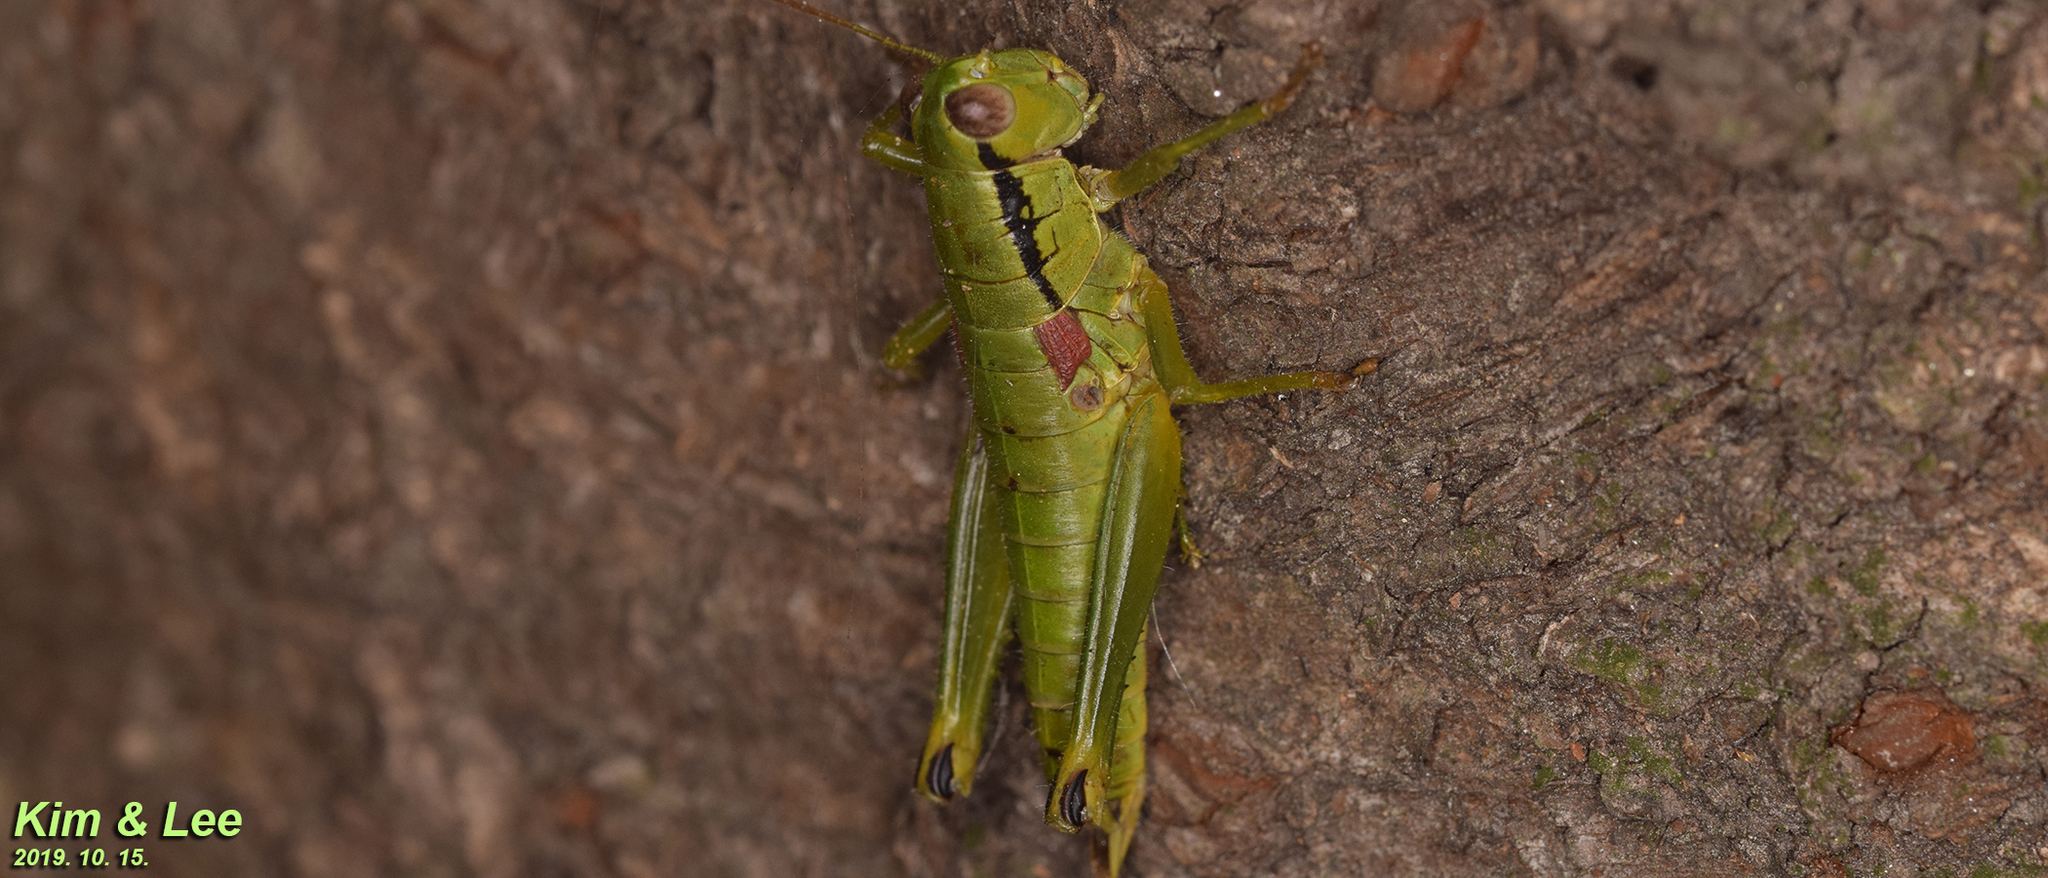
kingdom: Animalia
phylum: Arthropoda
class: Insecta
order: Orthoptera
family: Acrididae
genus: Anapodisma
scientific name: Anapodisma miramae
